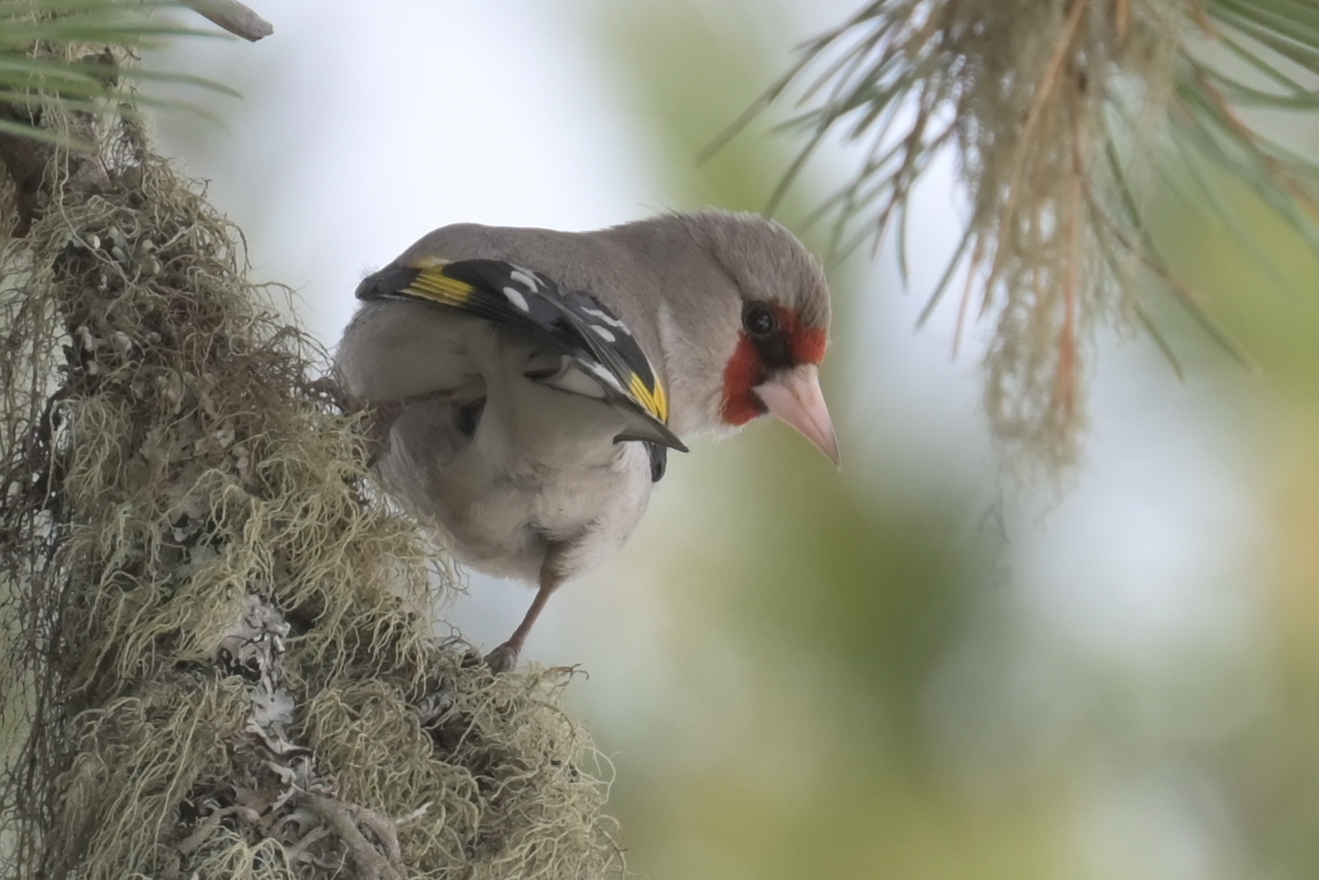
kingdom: Animalia
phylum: Chordata
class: Aves
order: Passeriformes
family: Fringillidae
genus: Carduelis
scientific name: Carduelis carduelis
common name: European goldfinch
